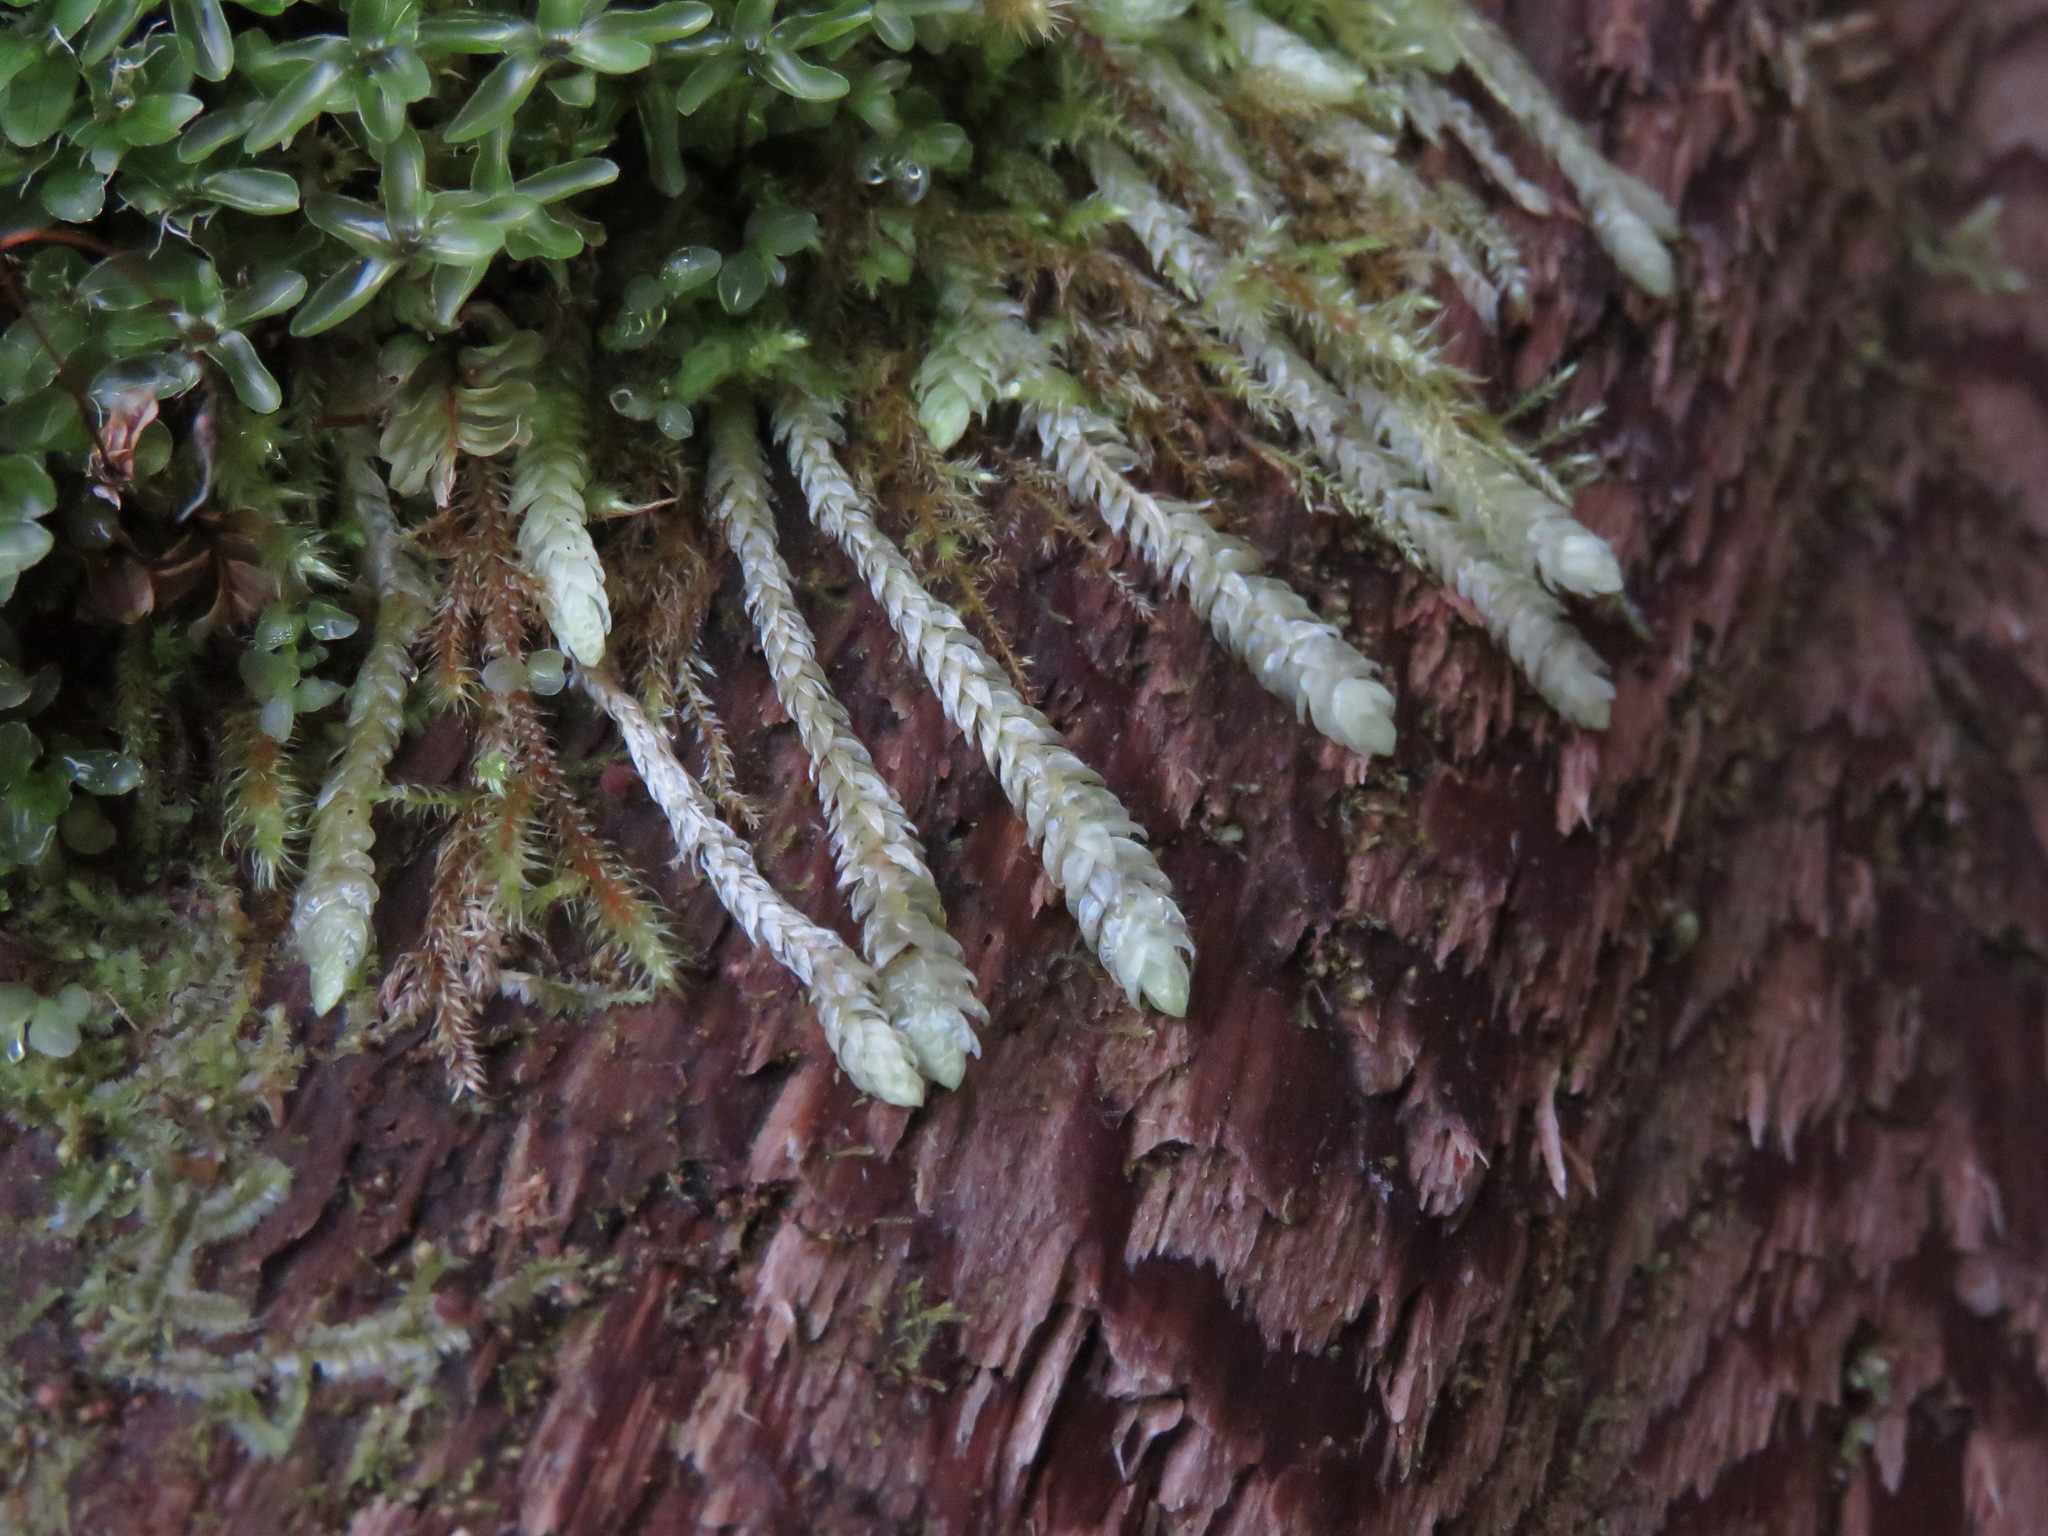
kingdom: Plantae
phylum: Bryophyta
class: Bryopsida
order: Hypnales
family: Plagiotheciaceae
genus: Plagiothecium
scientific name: Plagiothecium undulatum
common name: Waved silk-moss
